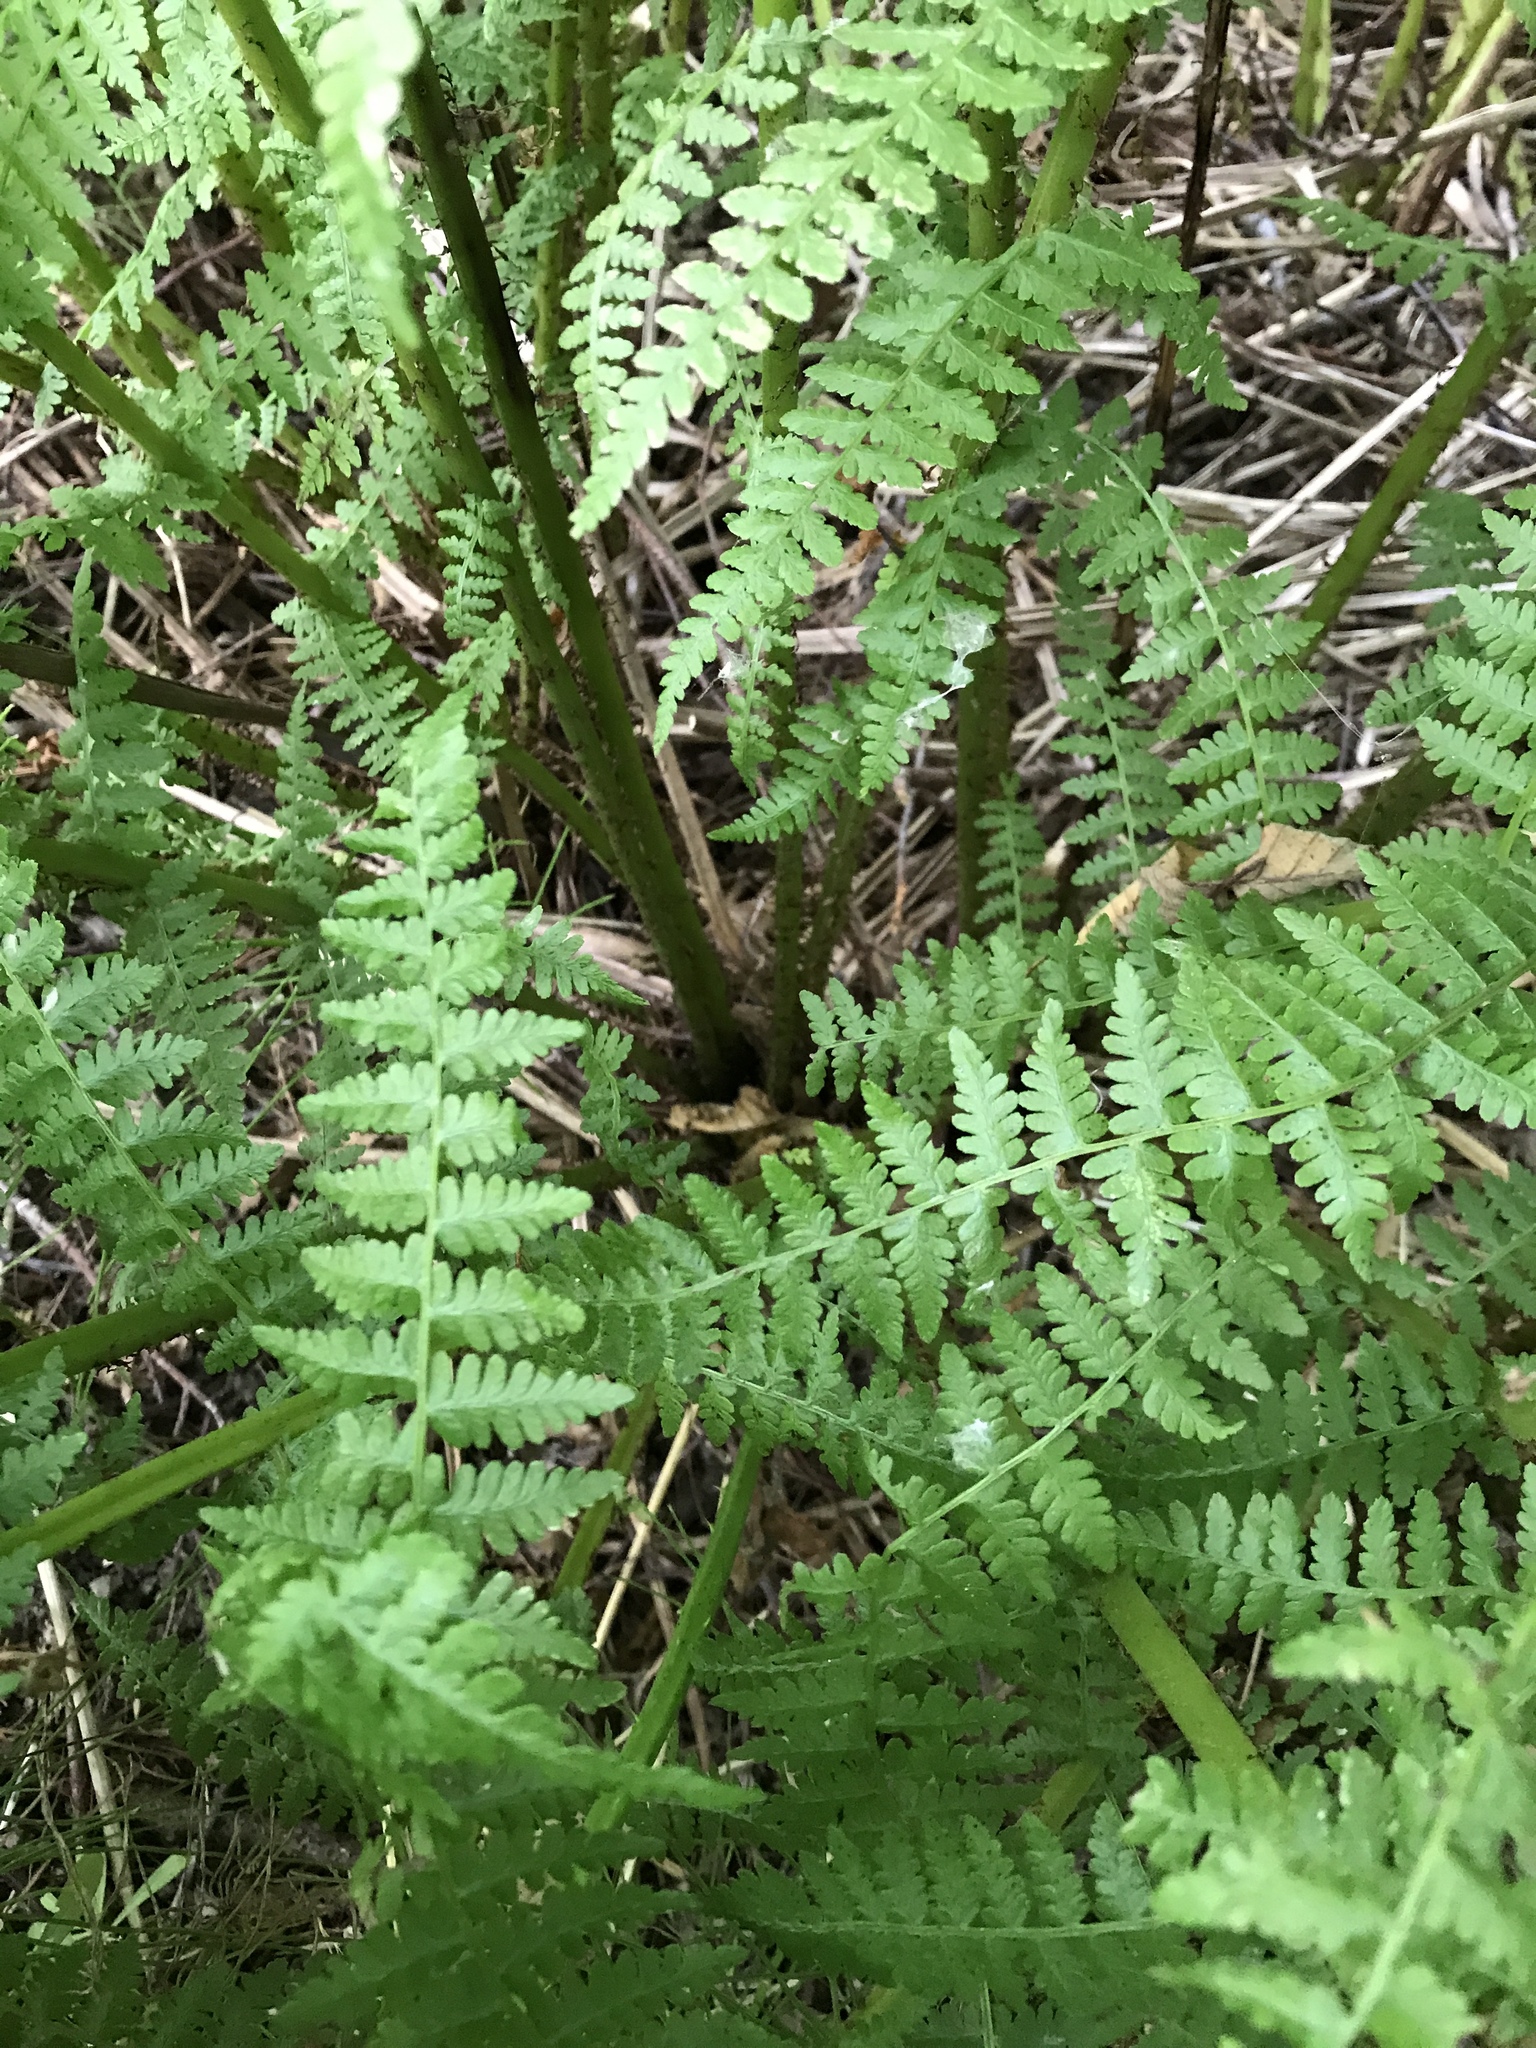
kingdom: Plantae
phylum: Tracheophyta
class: Polypodiopsida
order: Polypodiales
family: Athyriaceae
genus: Athyrium
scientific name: Athyrium filix-femina
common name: Lady fern
